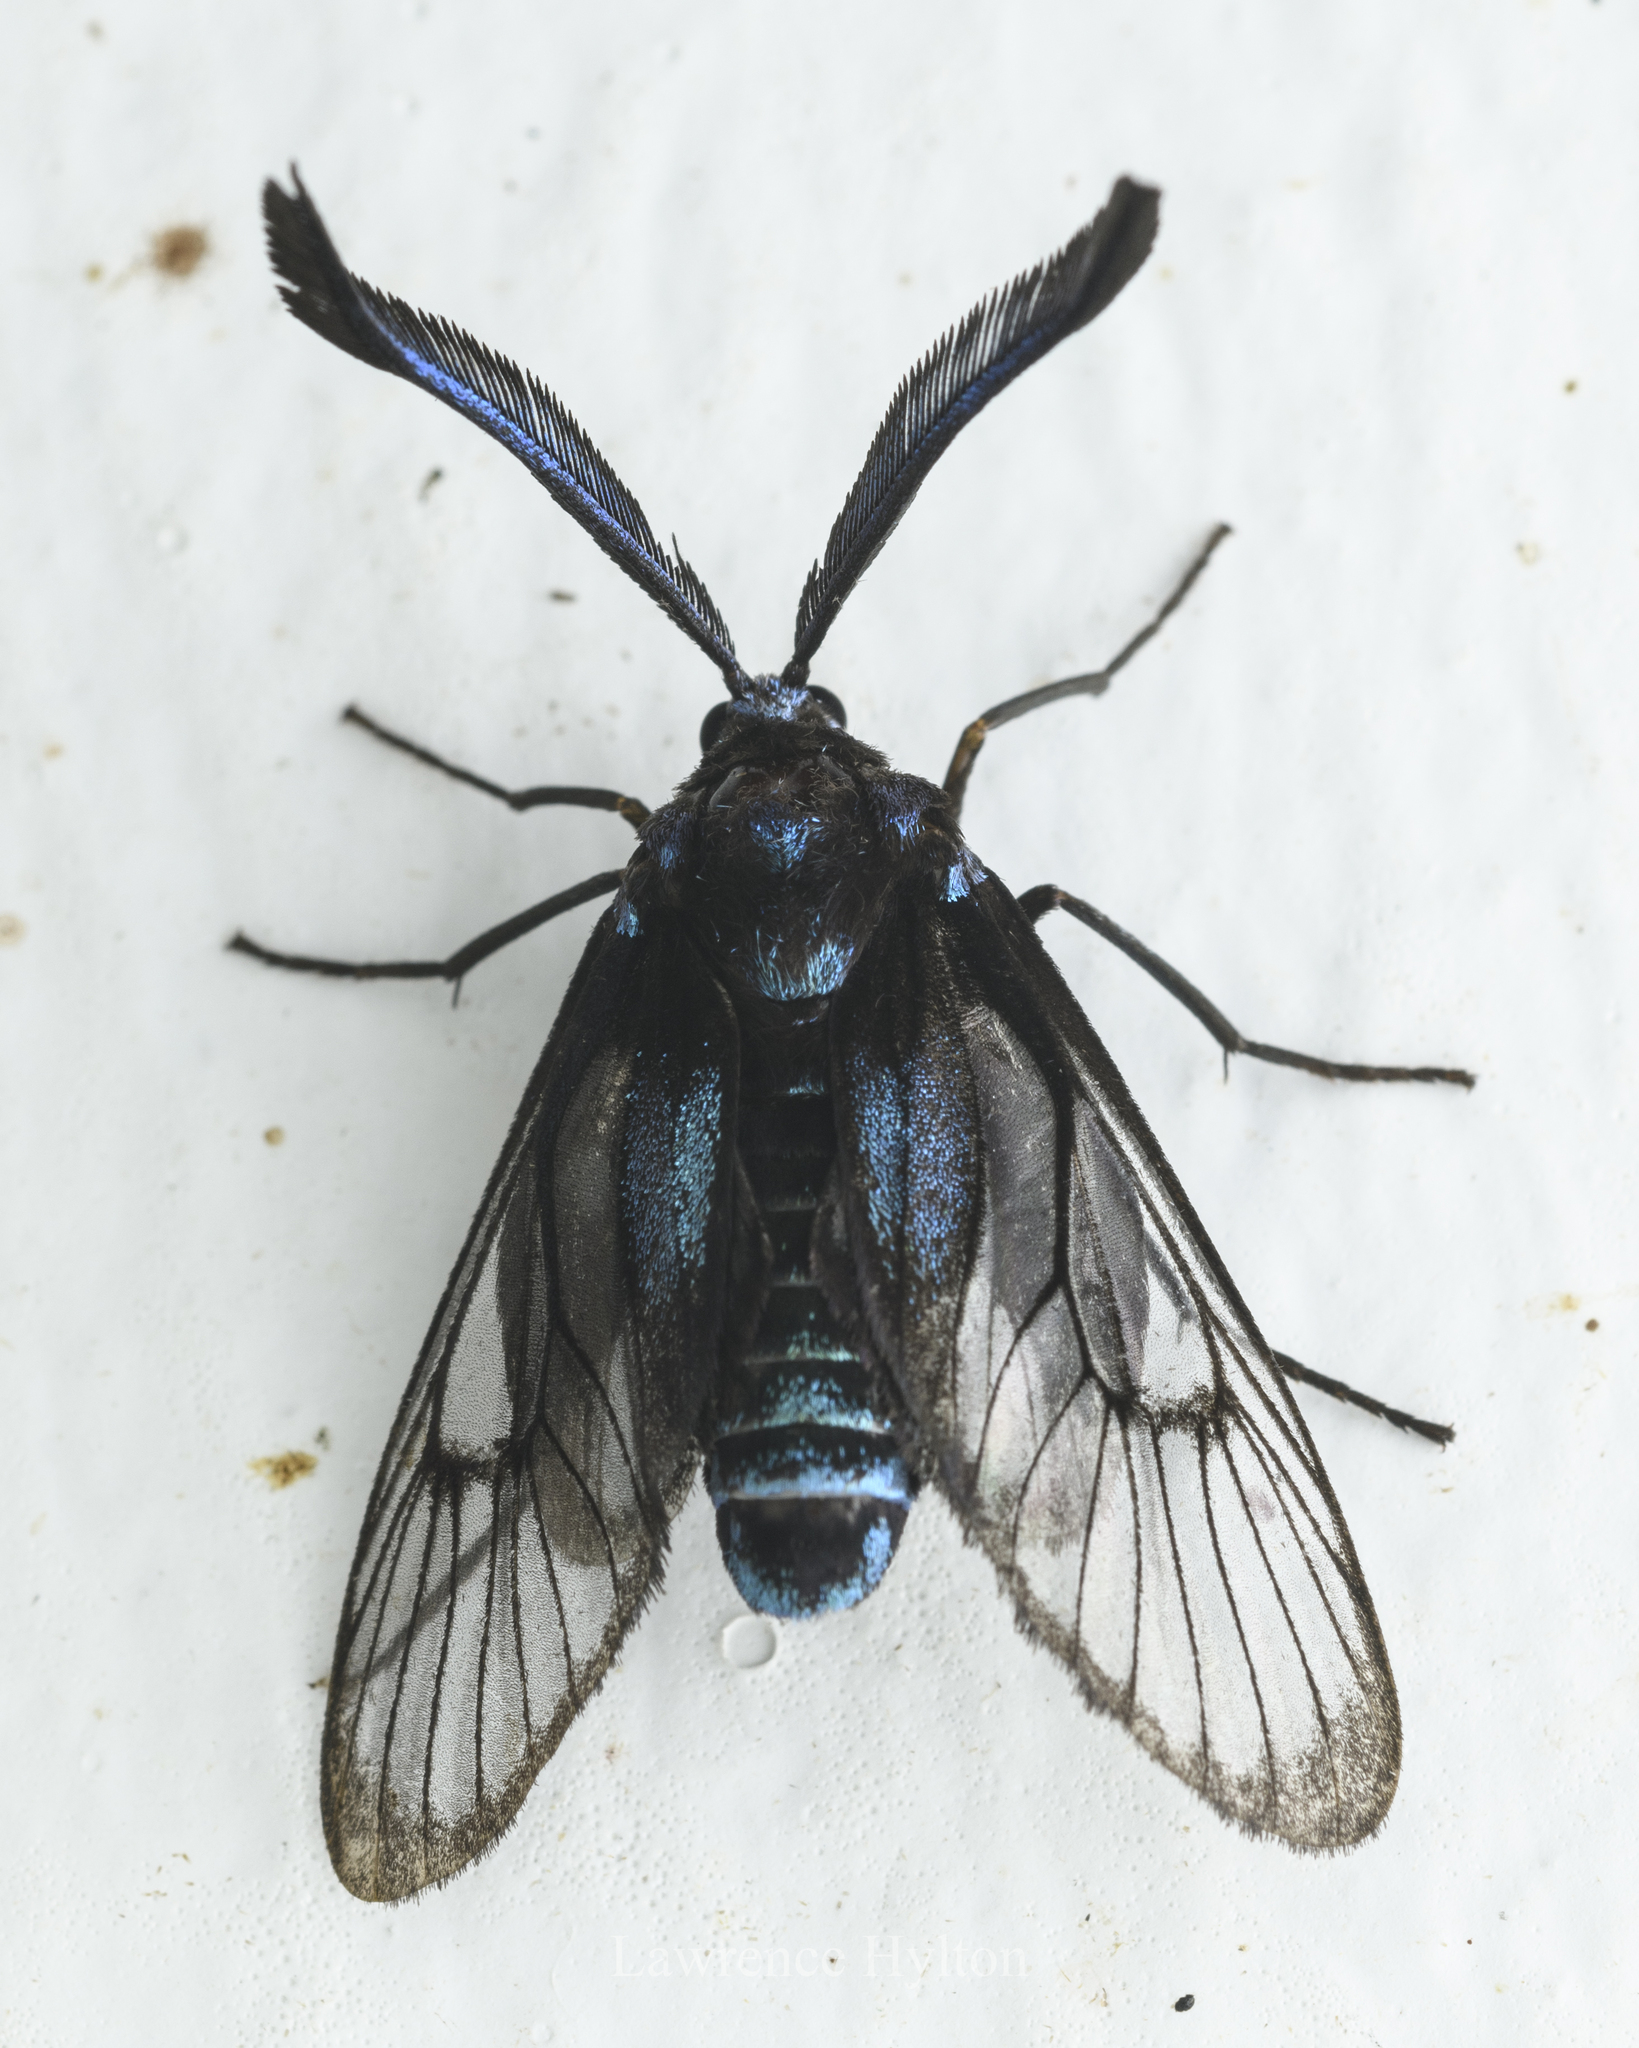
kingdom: Animalia
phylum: Arthropoda
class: Insecta
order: Lepidoptera
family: Zygaenidae
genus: Illiberis
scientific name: Illiberis
